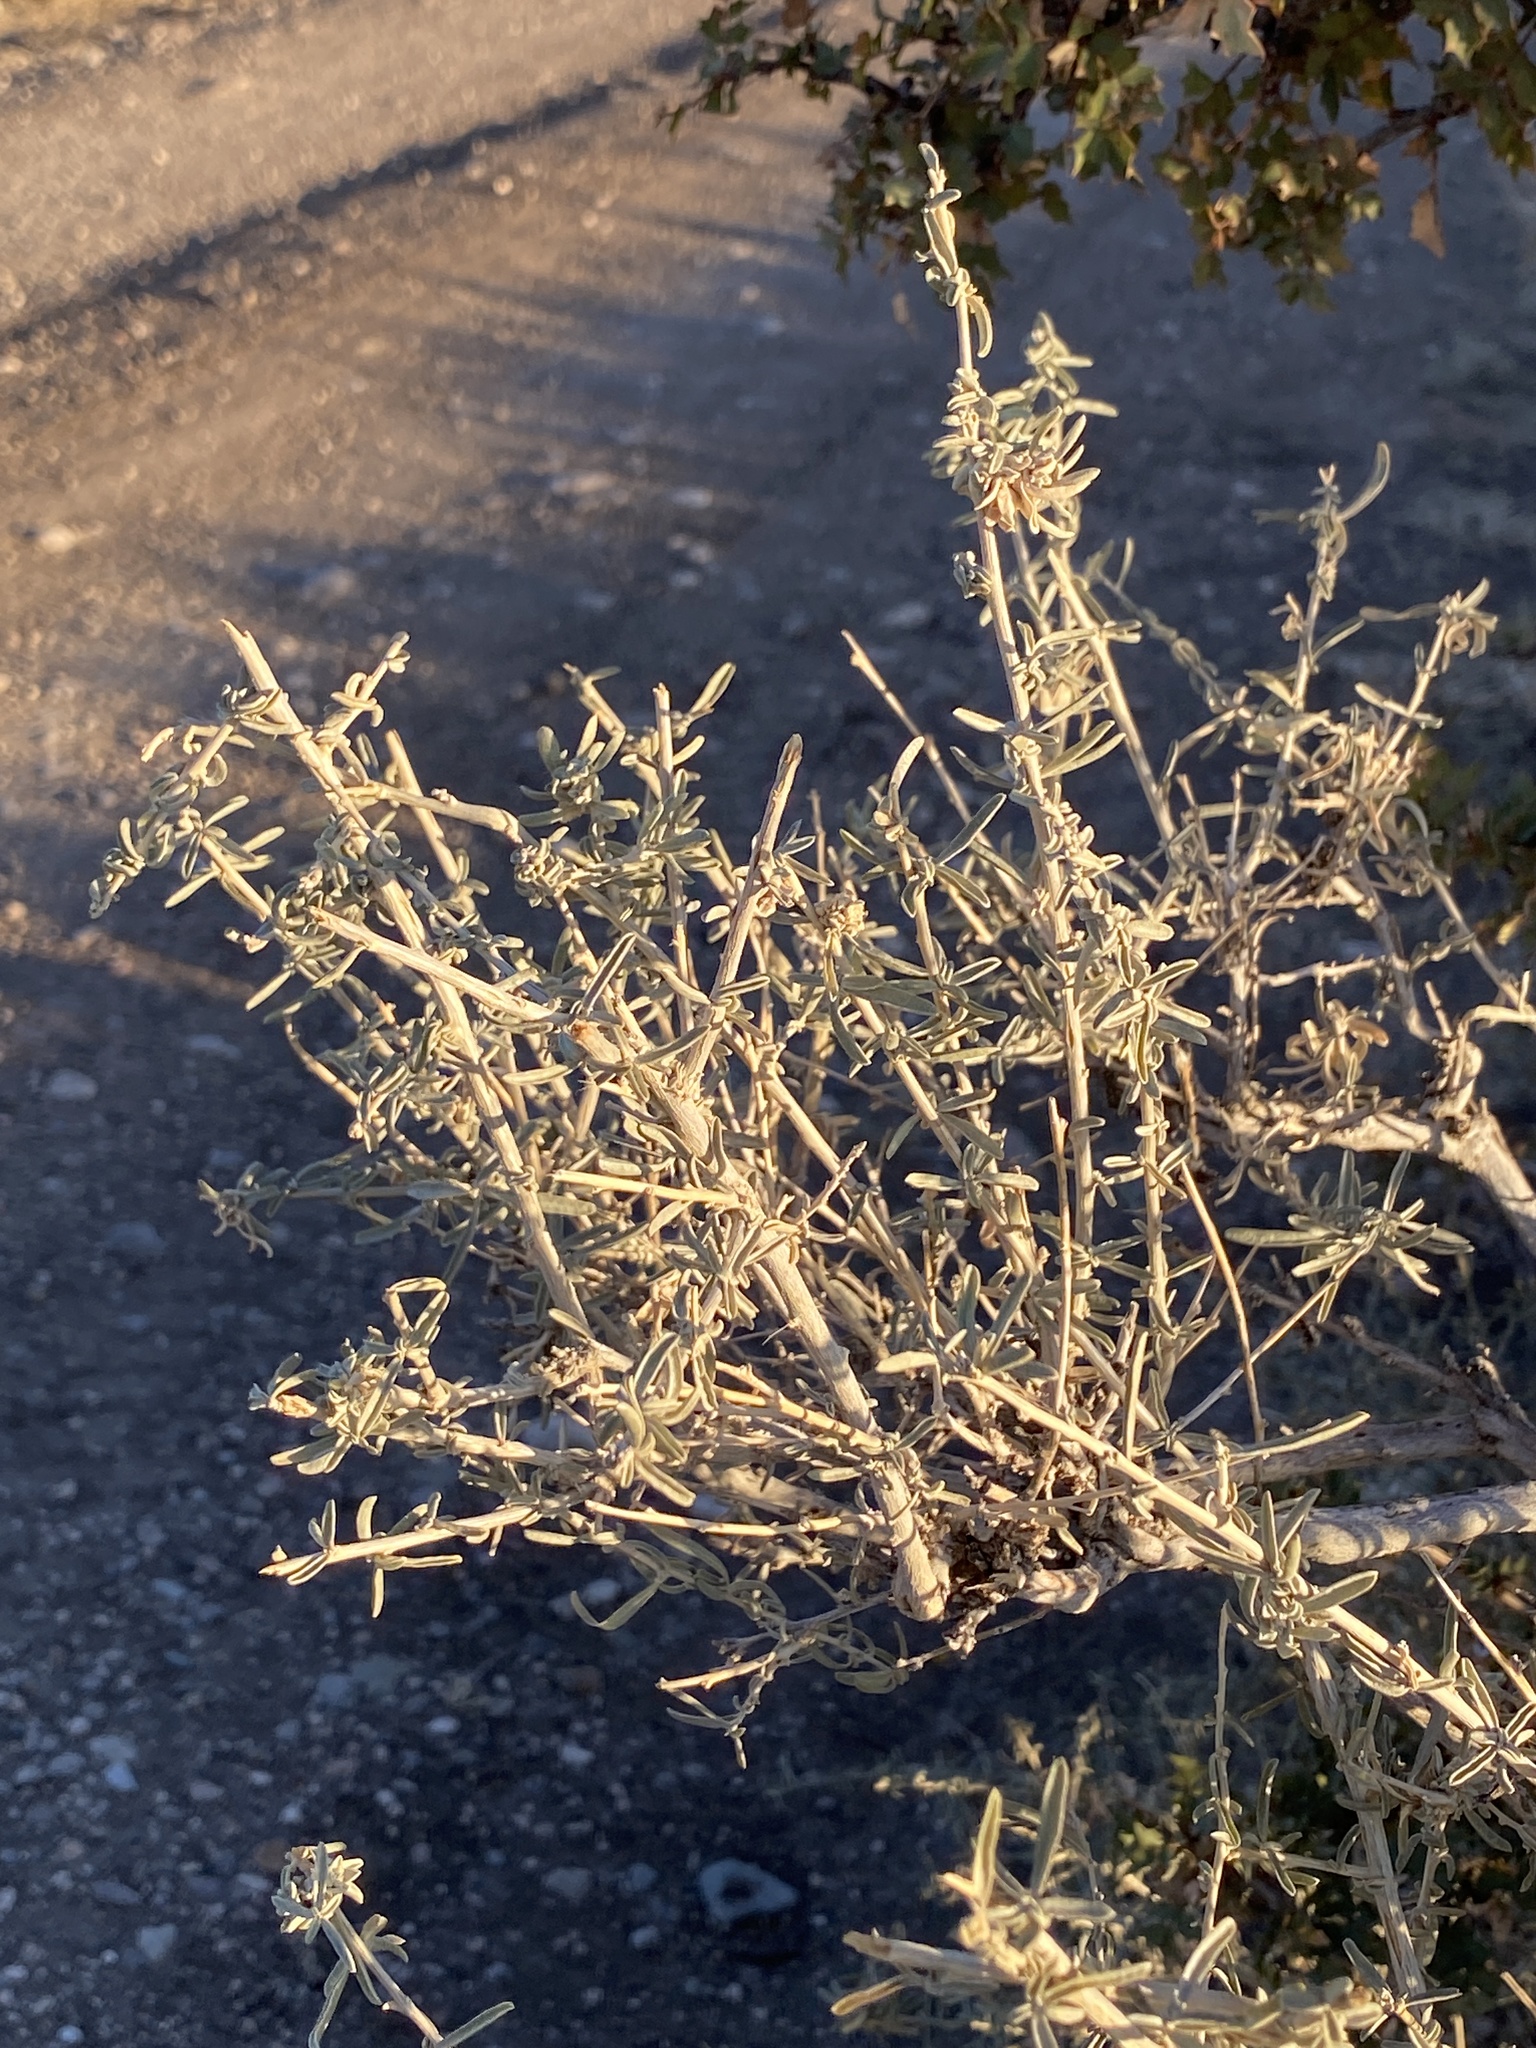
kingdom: Plantae
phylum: Tracheophyta
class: Magnoliopsida
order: Caryophyllales
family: Amaranthaceae
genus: Atriplex
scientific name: Atriplex canescens
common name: Four-wing saltbush
